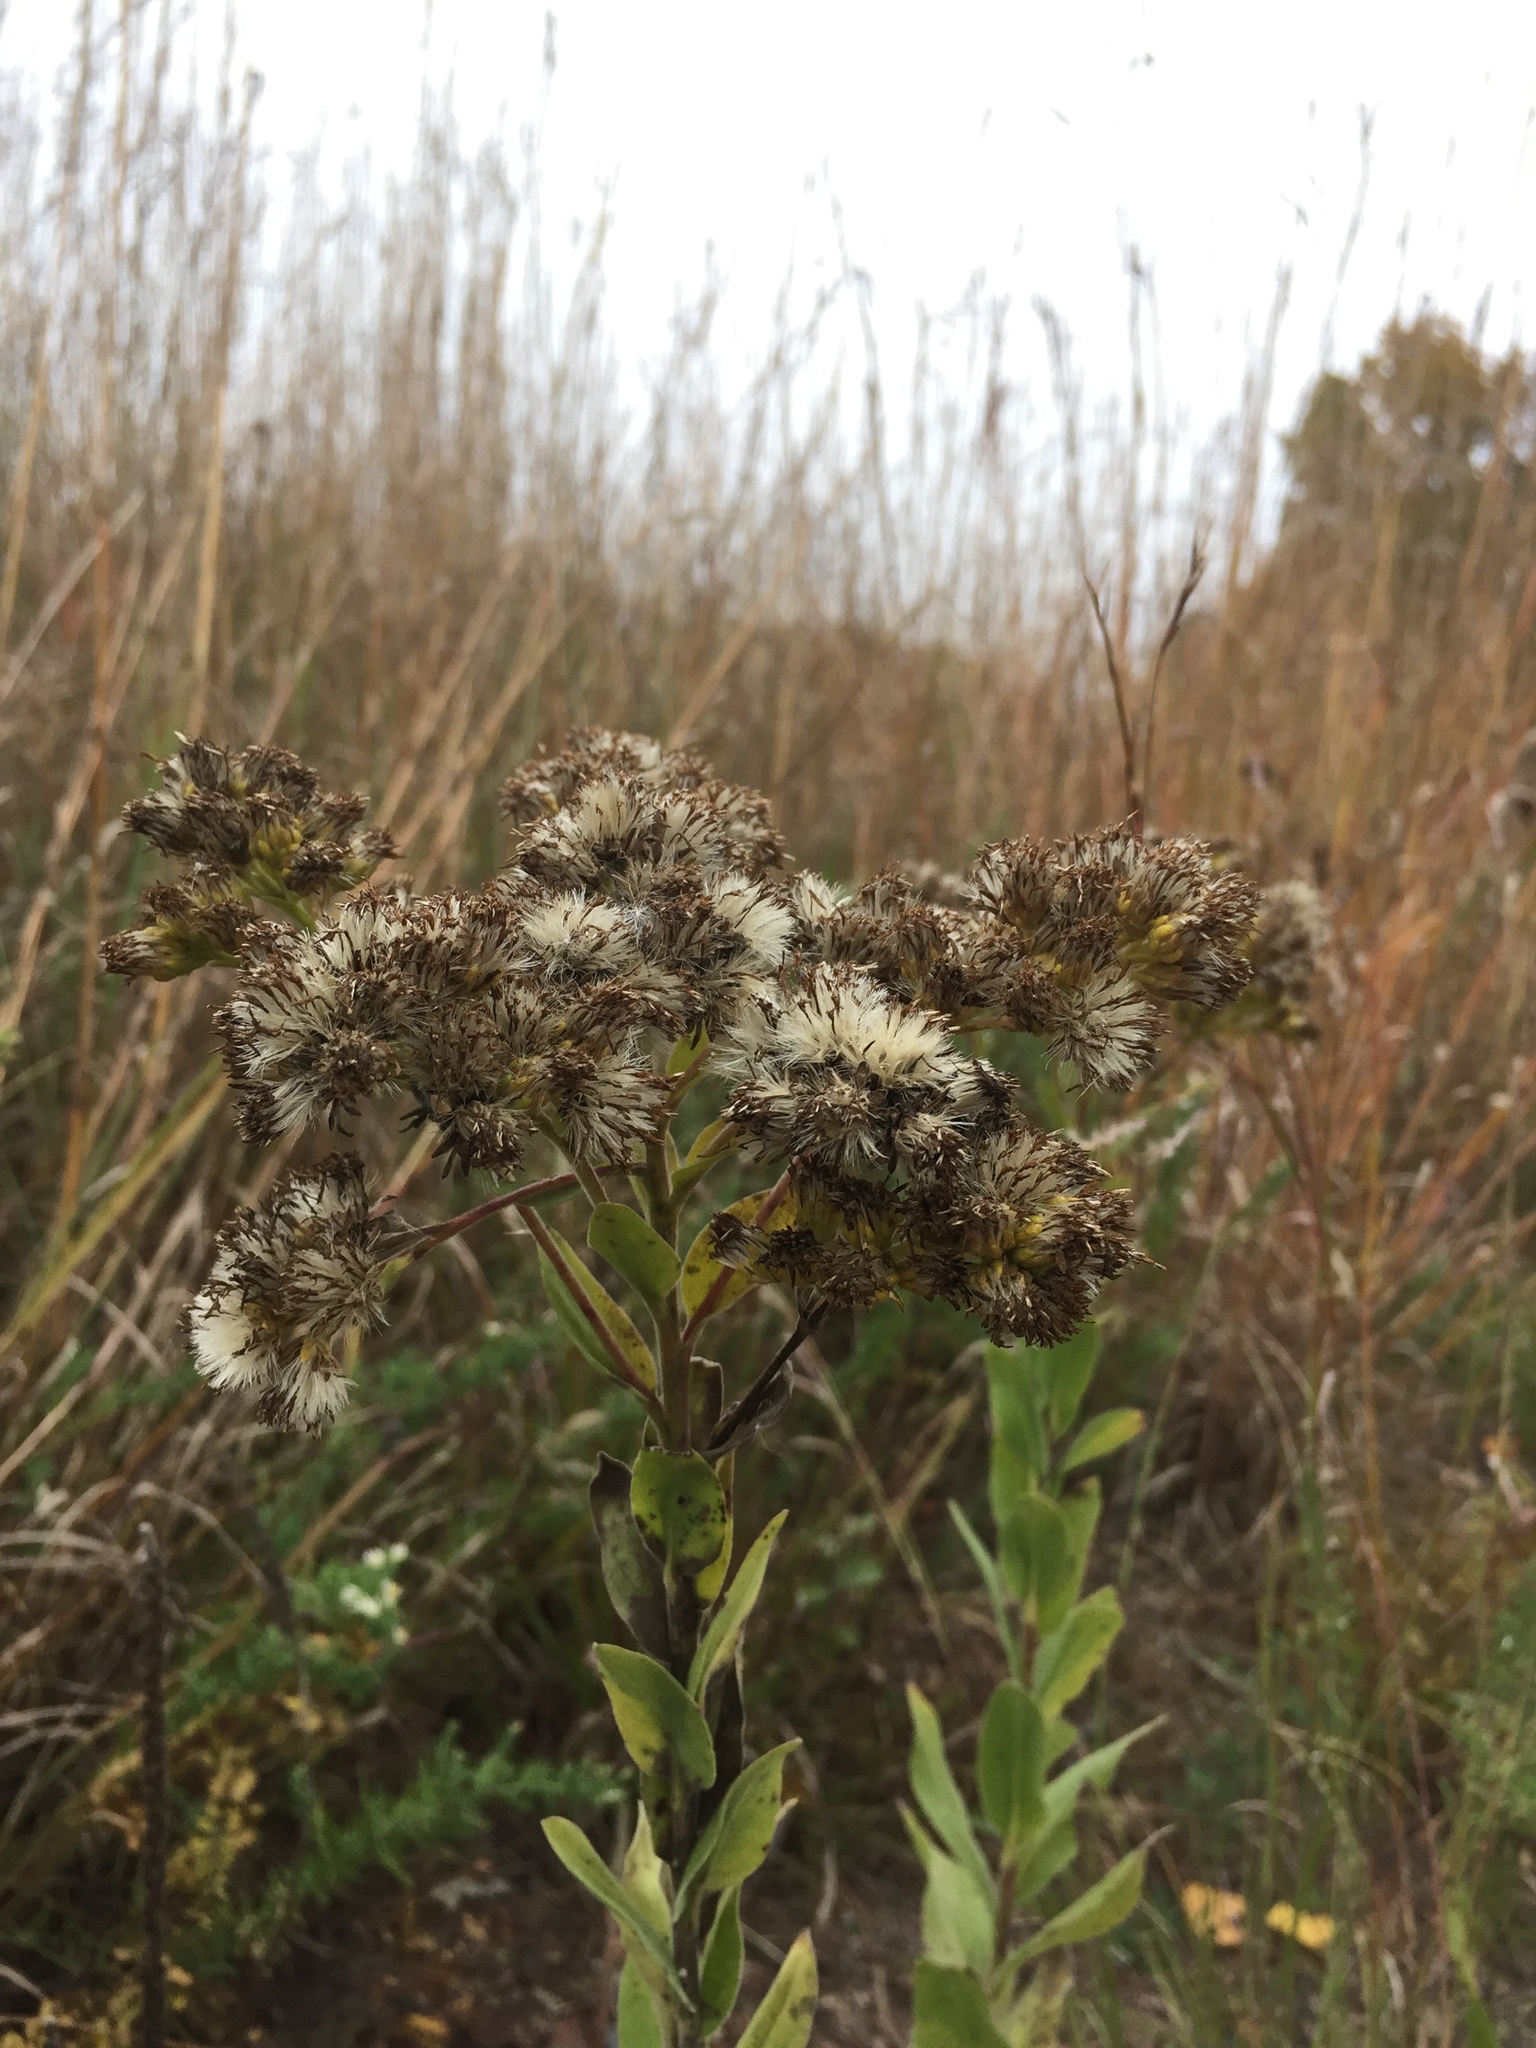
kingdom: Plantae
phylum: Tracheophyta
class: Magnoliopsida
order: Asterales
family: Asteraceae
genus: Solidago
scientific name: Solidago rigida
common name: Rigid goldenrod
